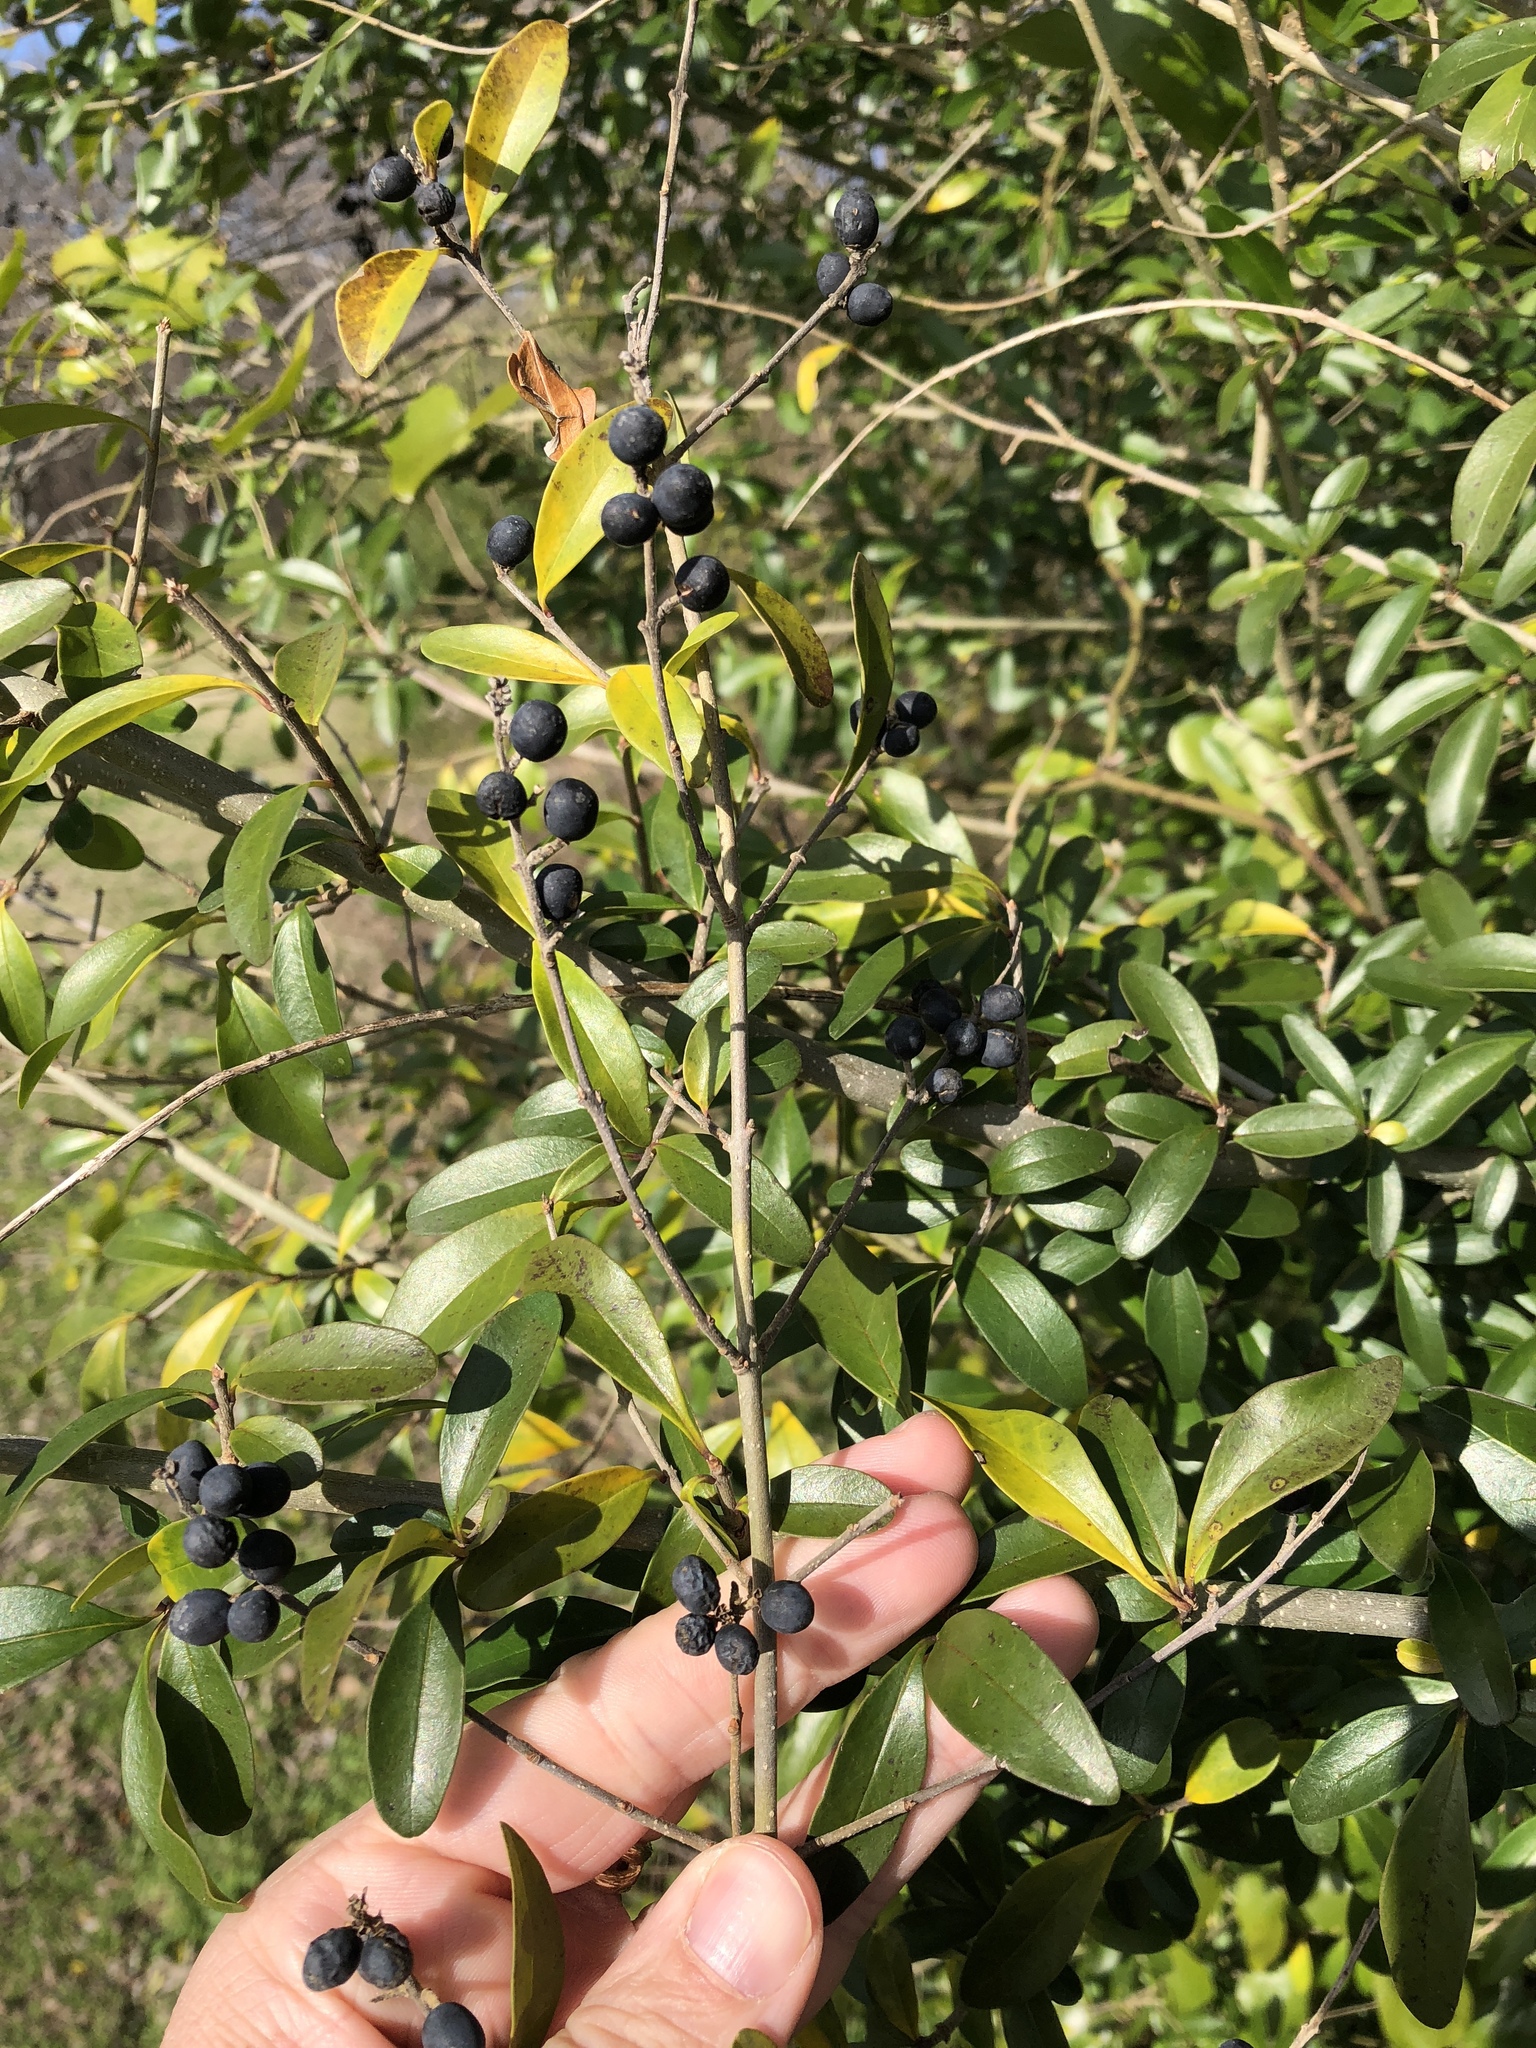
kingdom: Plantae
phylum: Tracheophyta
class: Magnoliopsida
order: Lamiales
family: Oleaceae
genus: Ligustrum
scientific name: Ligustrum quihoui
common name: Waxyleaf privet
